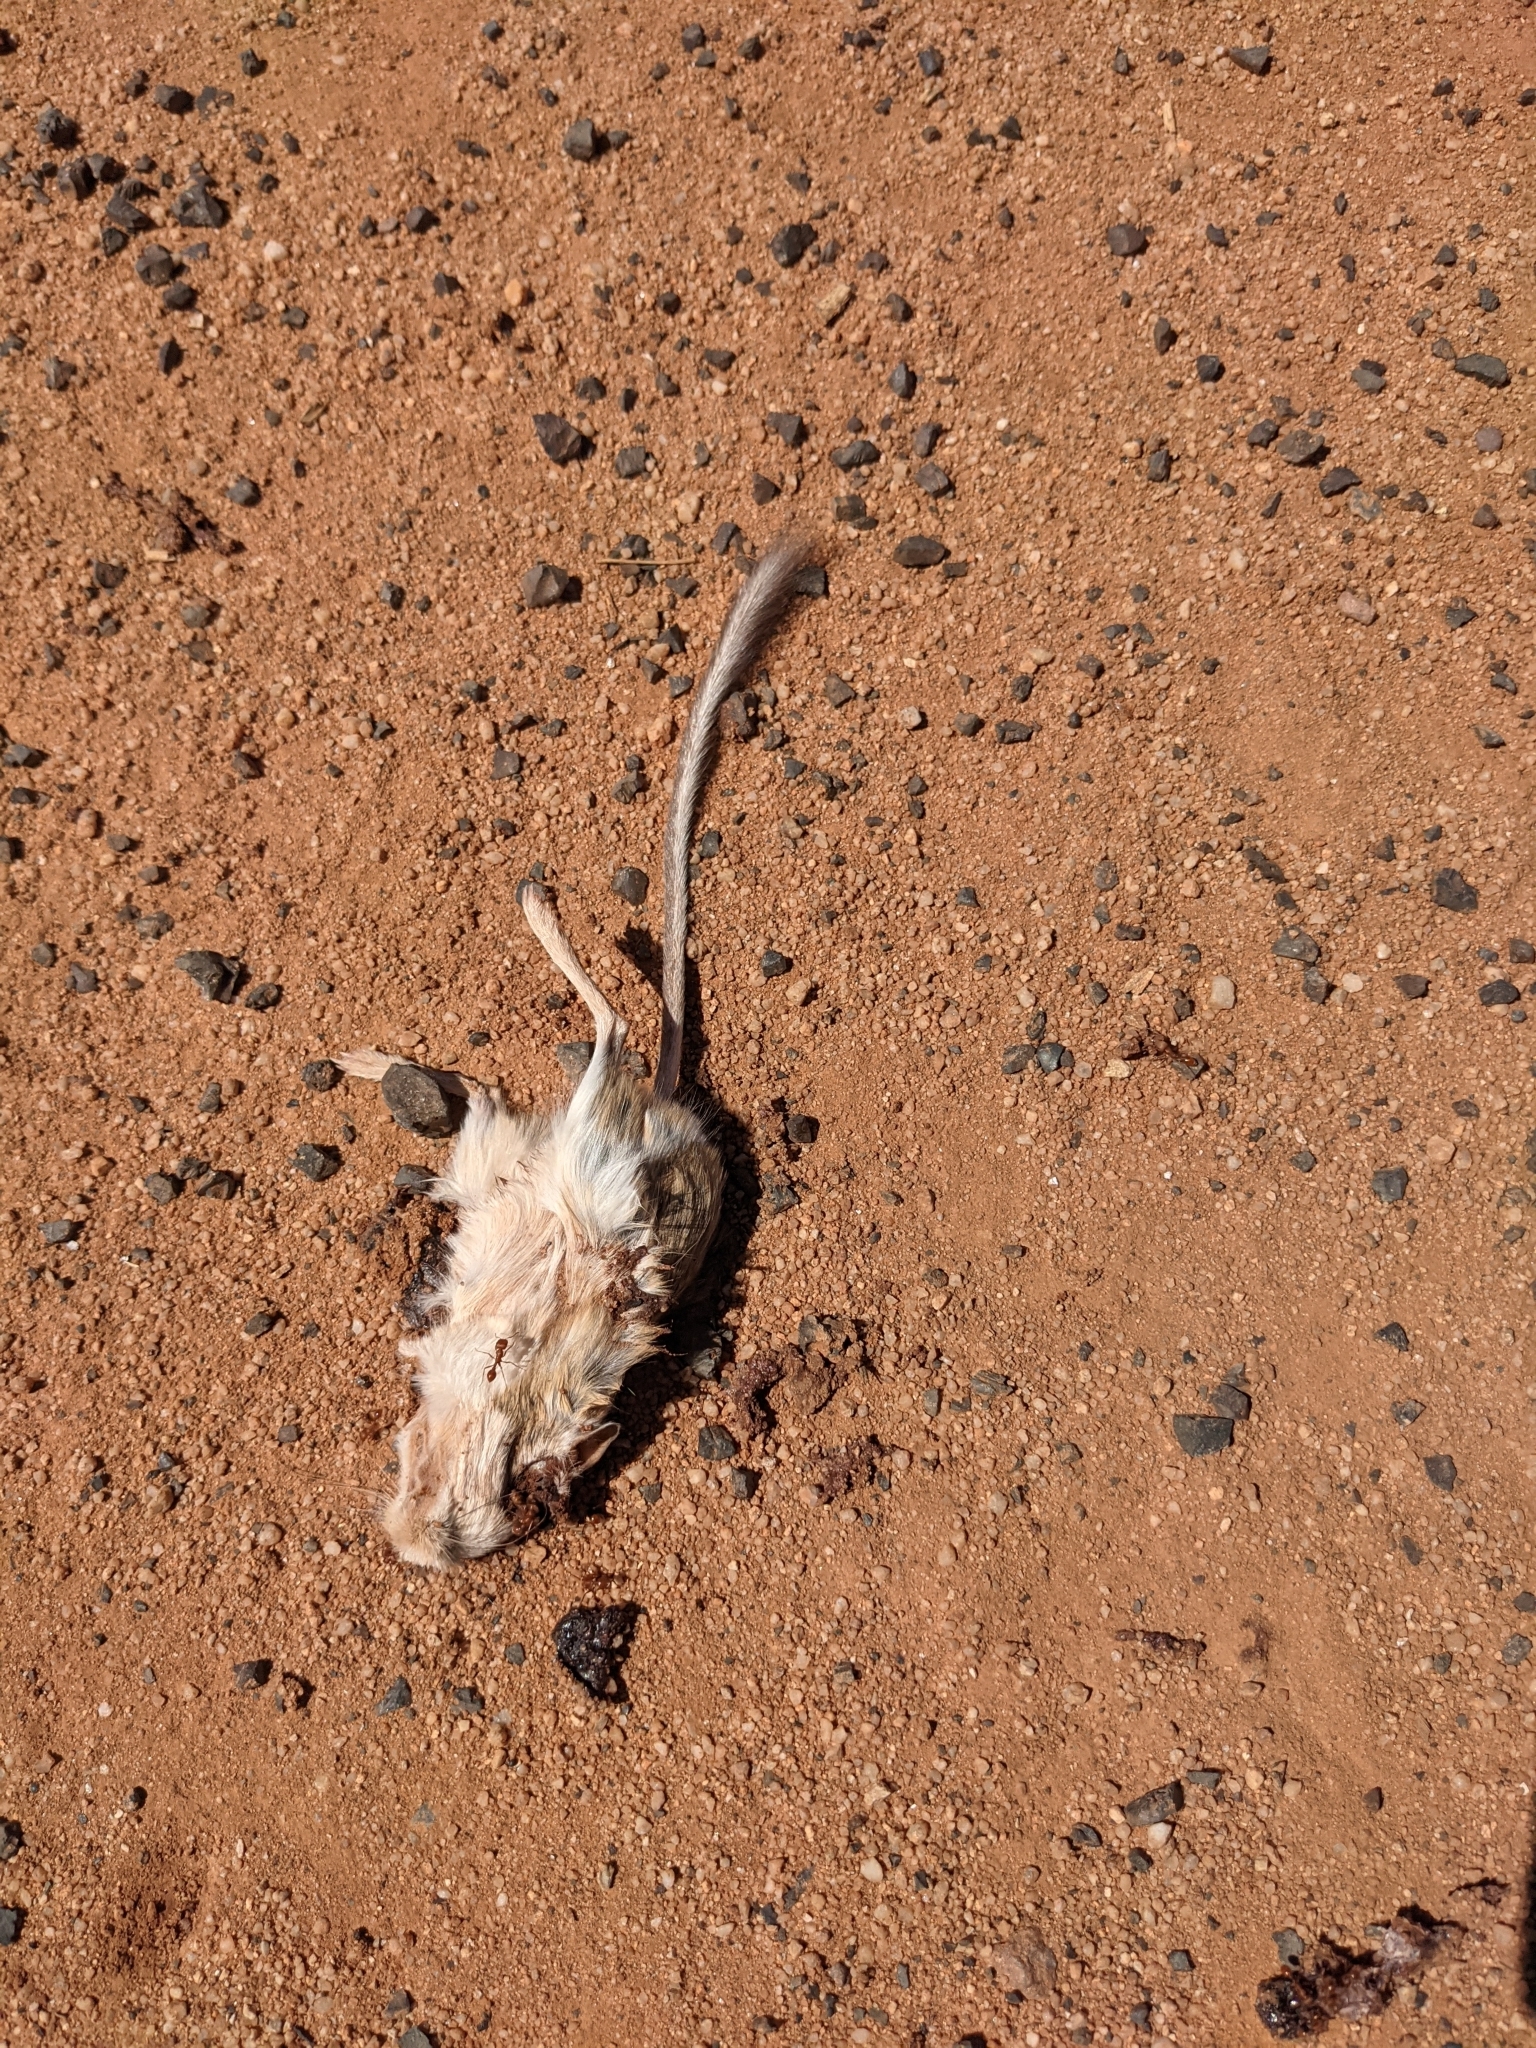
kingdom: Animalia
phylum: Chordata
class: Mammalia
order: Rodentia
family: Heteromyidae
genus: Dipodomys
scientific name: Dipodomys merriami
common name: Merriam's kangaroo rat
